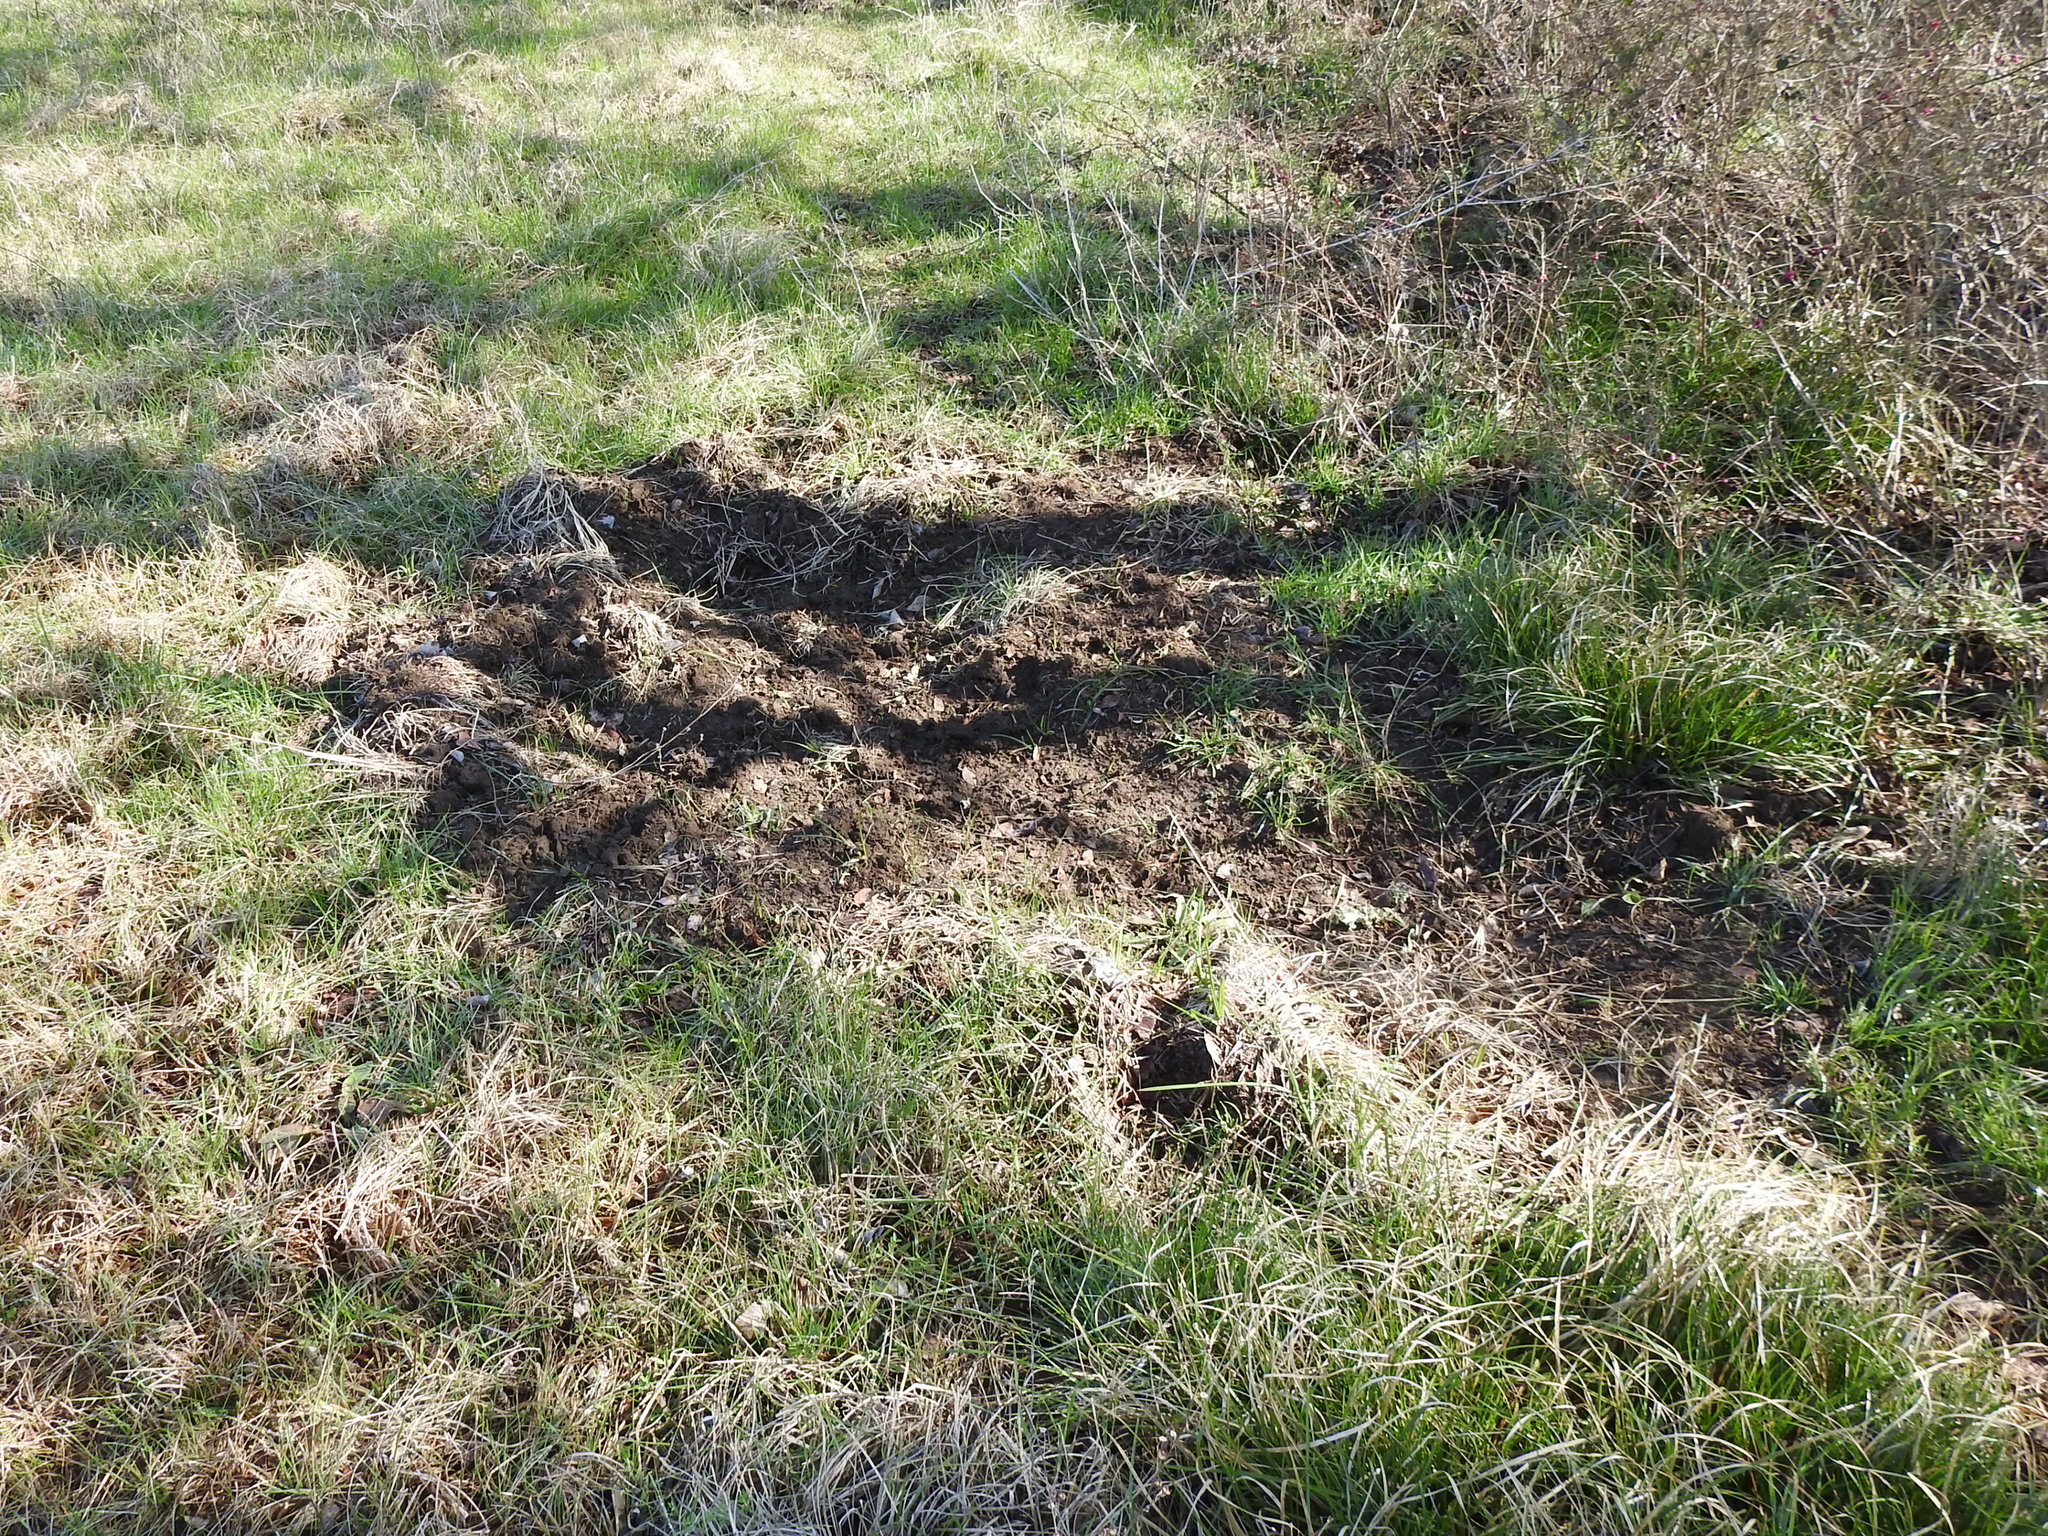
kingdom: Animalia
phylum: Chordata
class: Mammalia
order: Artiodactyla
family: Suidae
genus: Sus
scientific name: Sus scrofa
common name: Wild boar
